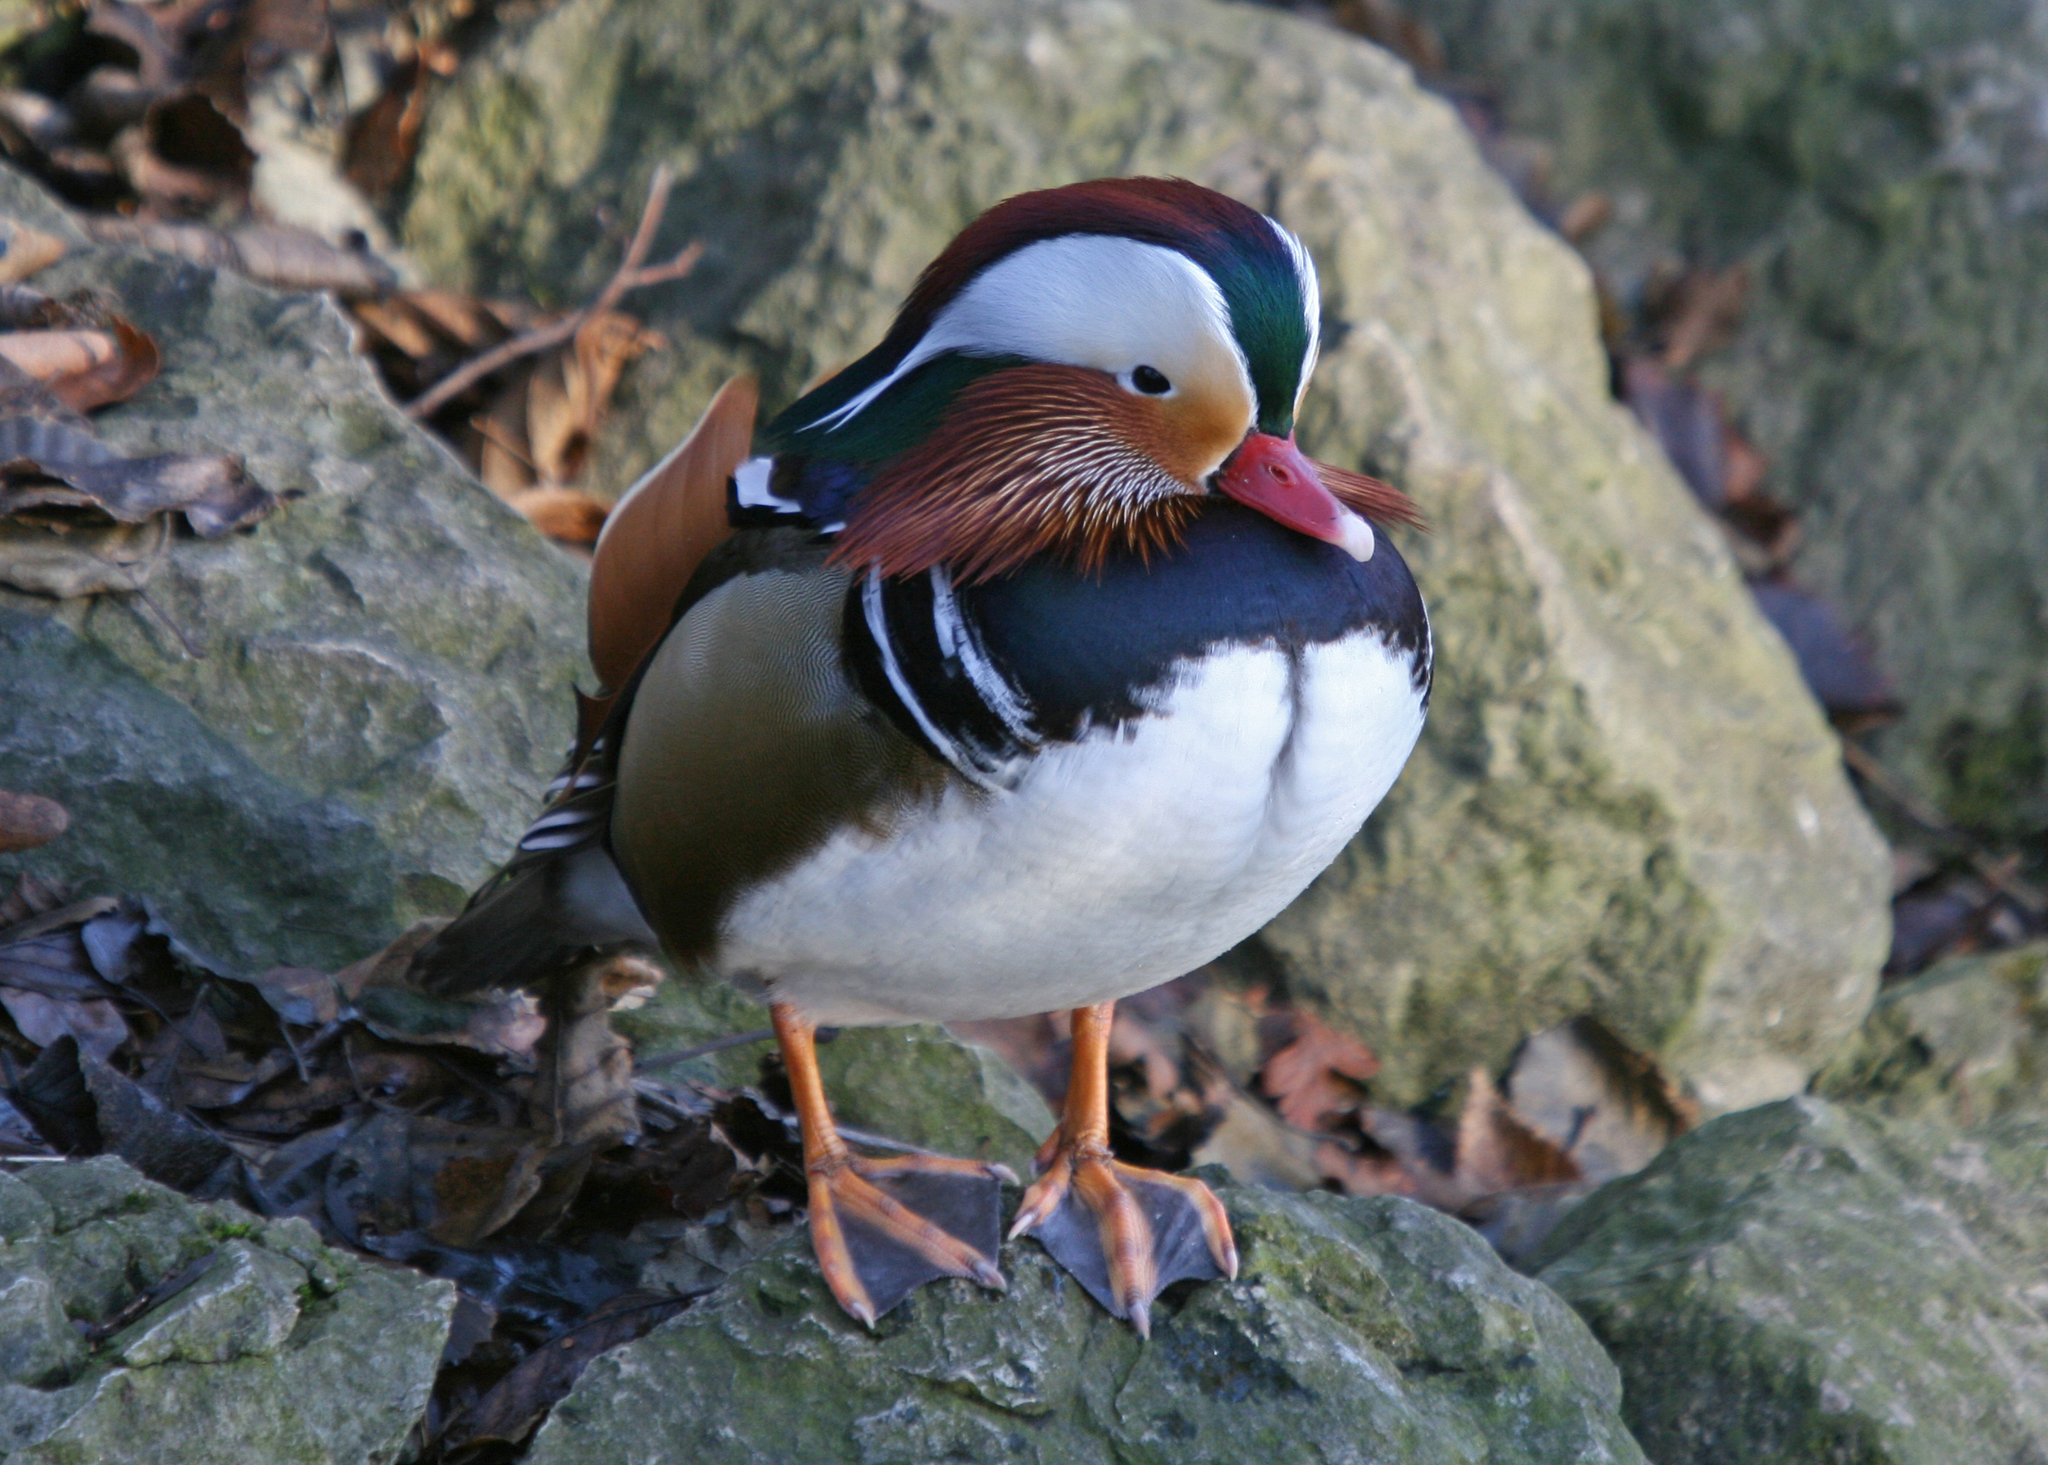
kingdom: Animalia
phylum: Chordata
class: Aves
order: Anseriformes
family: Anatidae
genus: Aix
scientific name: Aix galericulata
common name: Mandarin duck
